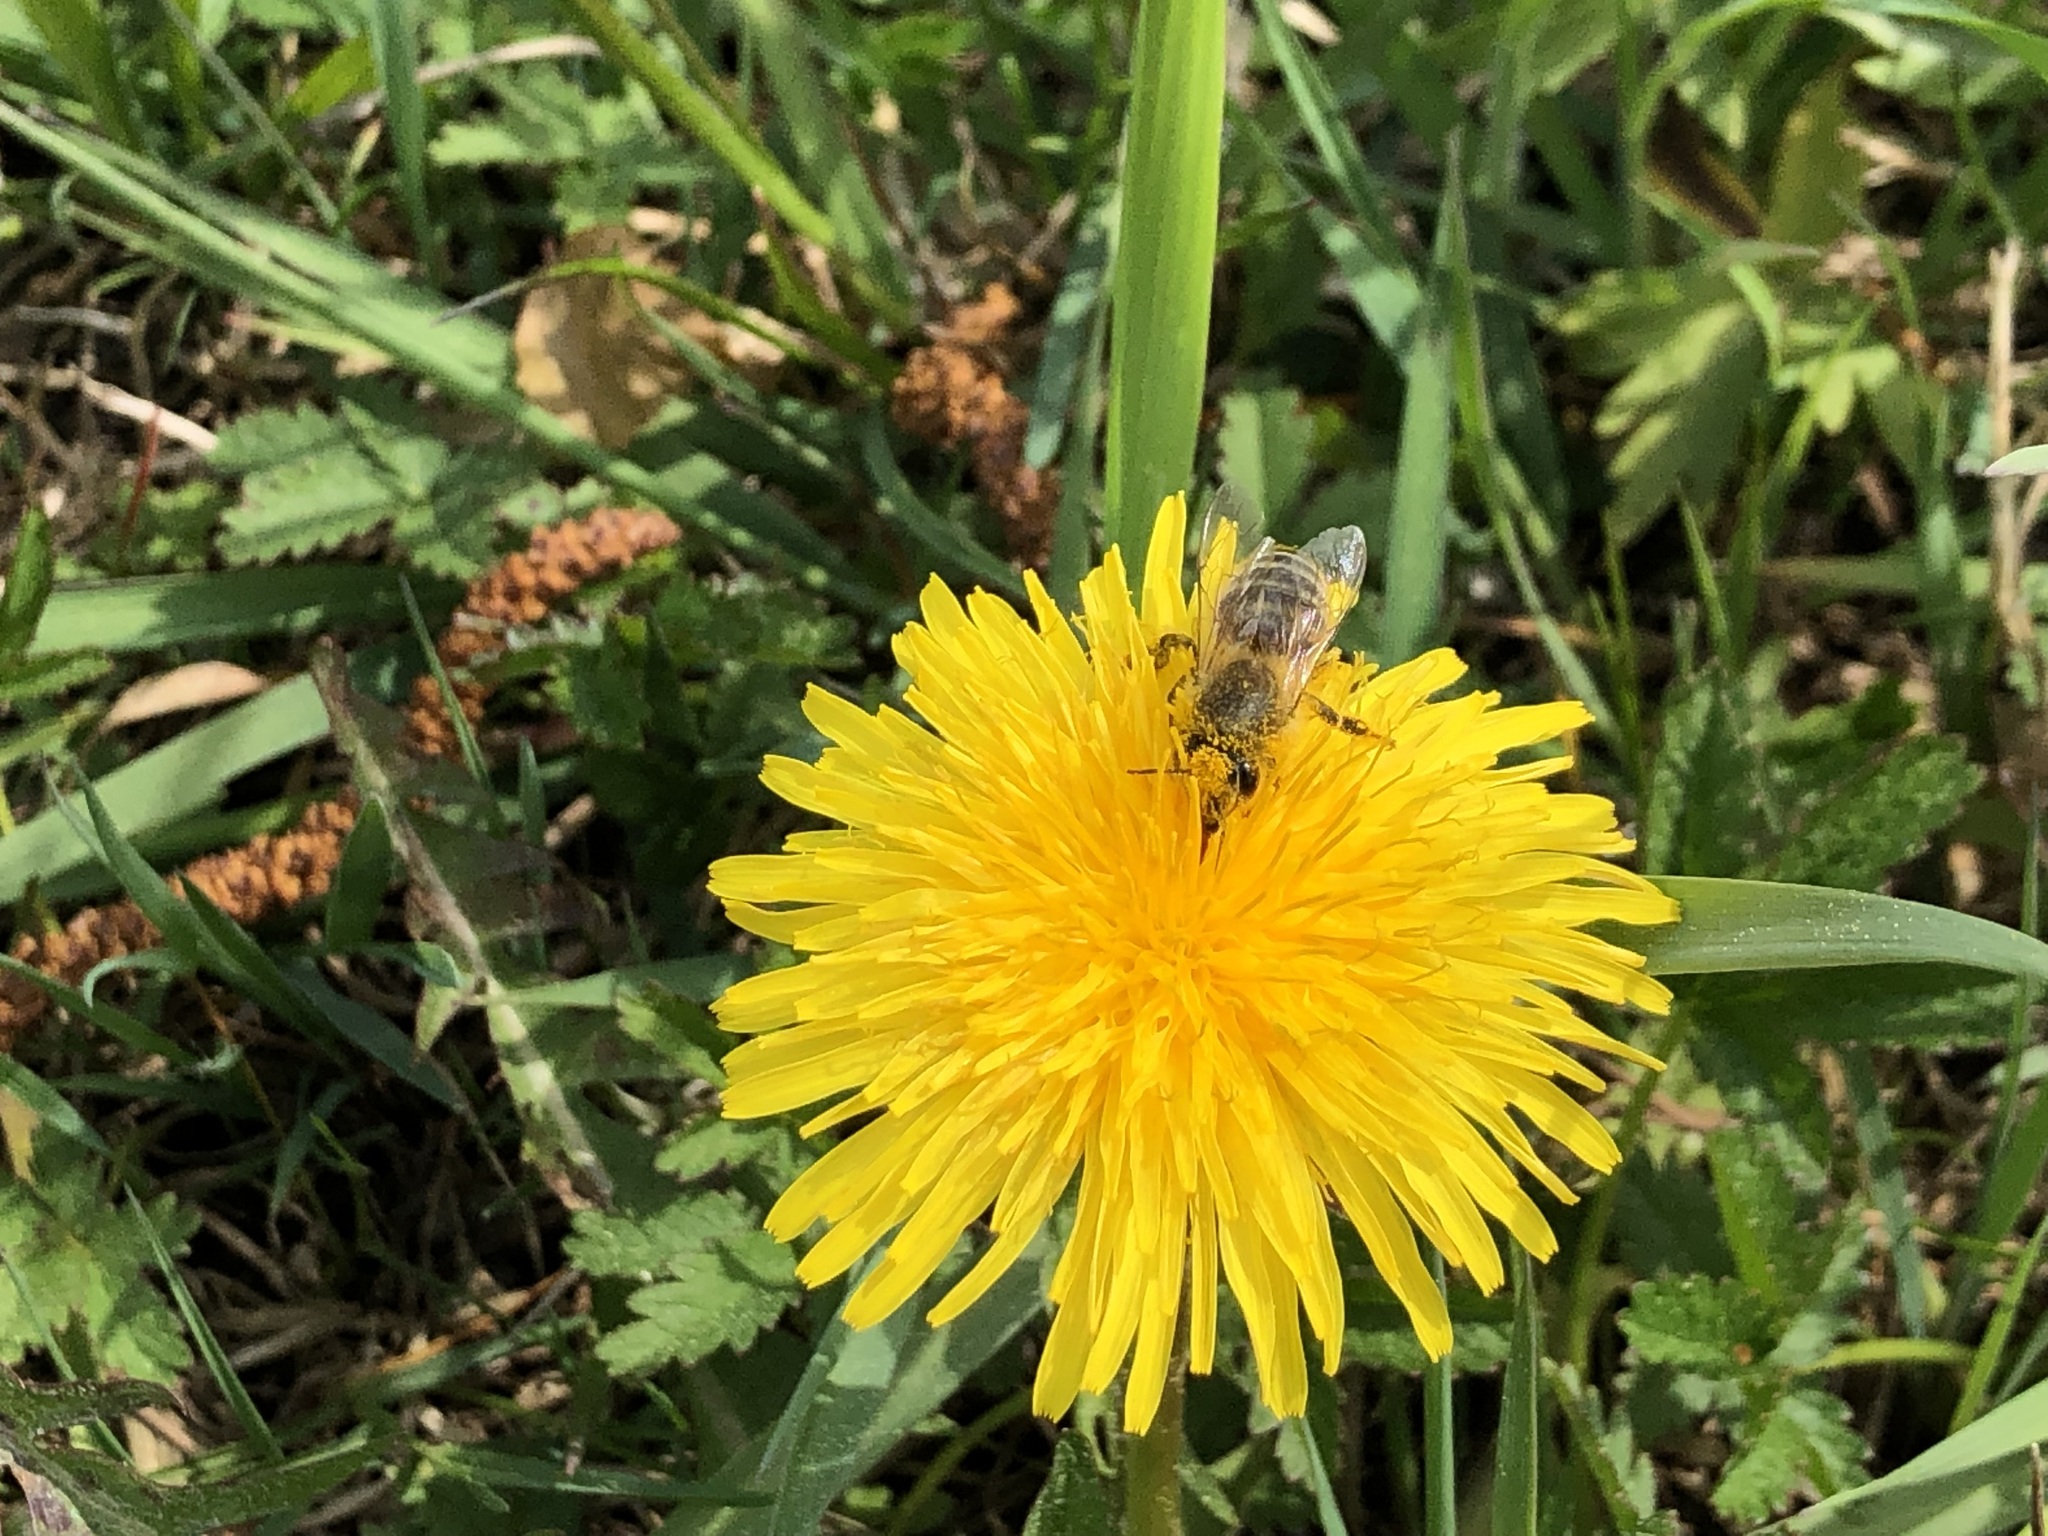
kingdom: Animalia
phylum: Arthropoda
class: Insecta
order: Hymenoptera
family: Apidae
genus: Apis
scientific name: Apis mellifera
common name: Honey bee
